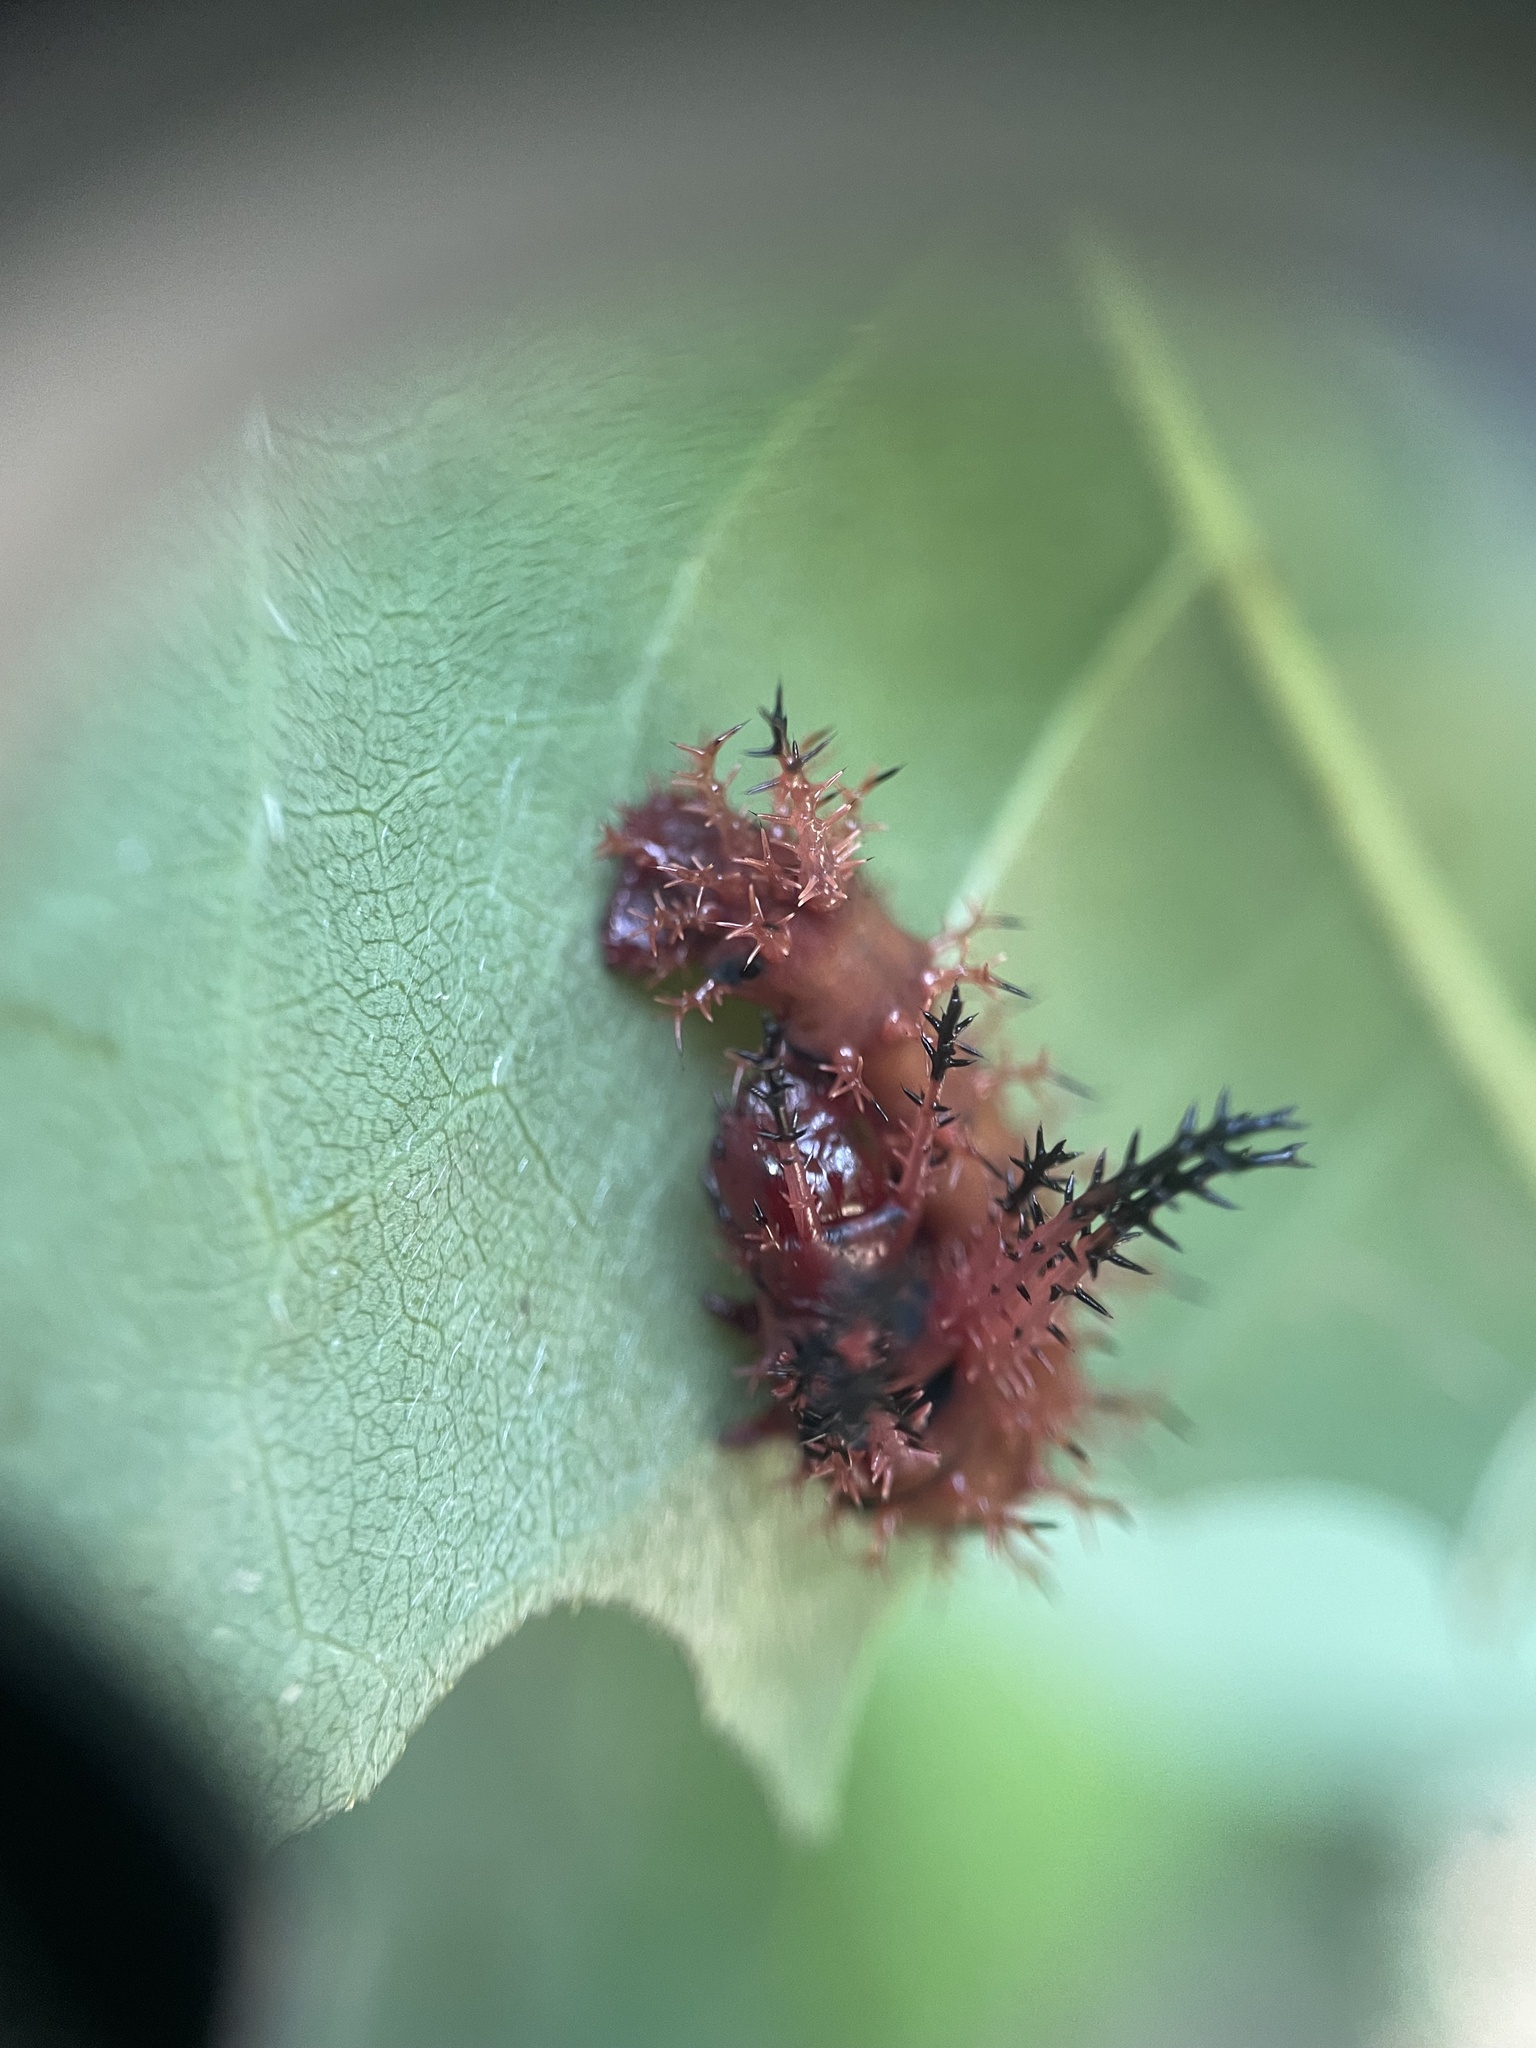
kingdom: Animalia
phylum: Arthropoda
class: Insecta
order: Lepidoptera
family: Saturniidae
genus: Citheronia
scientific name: Citheronia regalis
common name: Hickory horned devil
